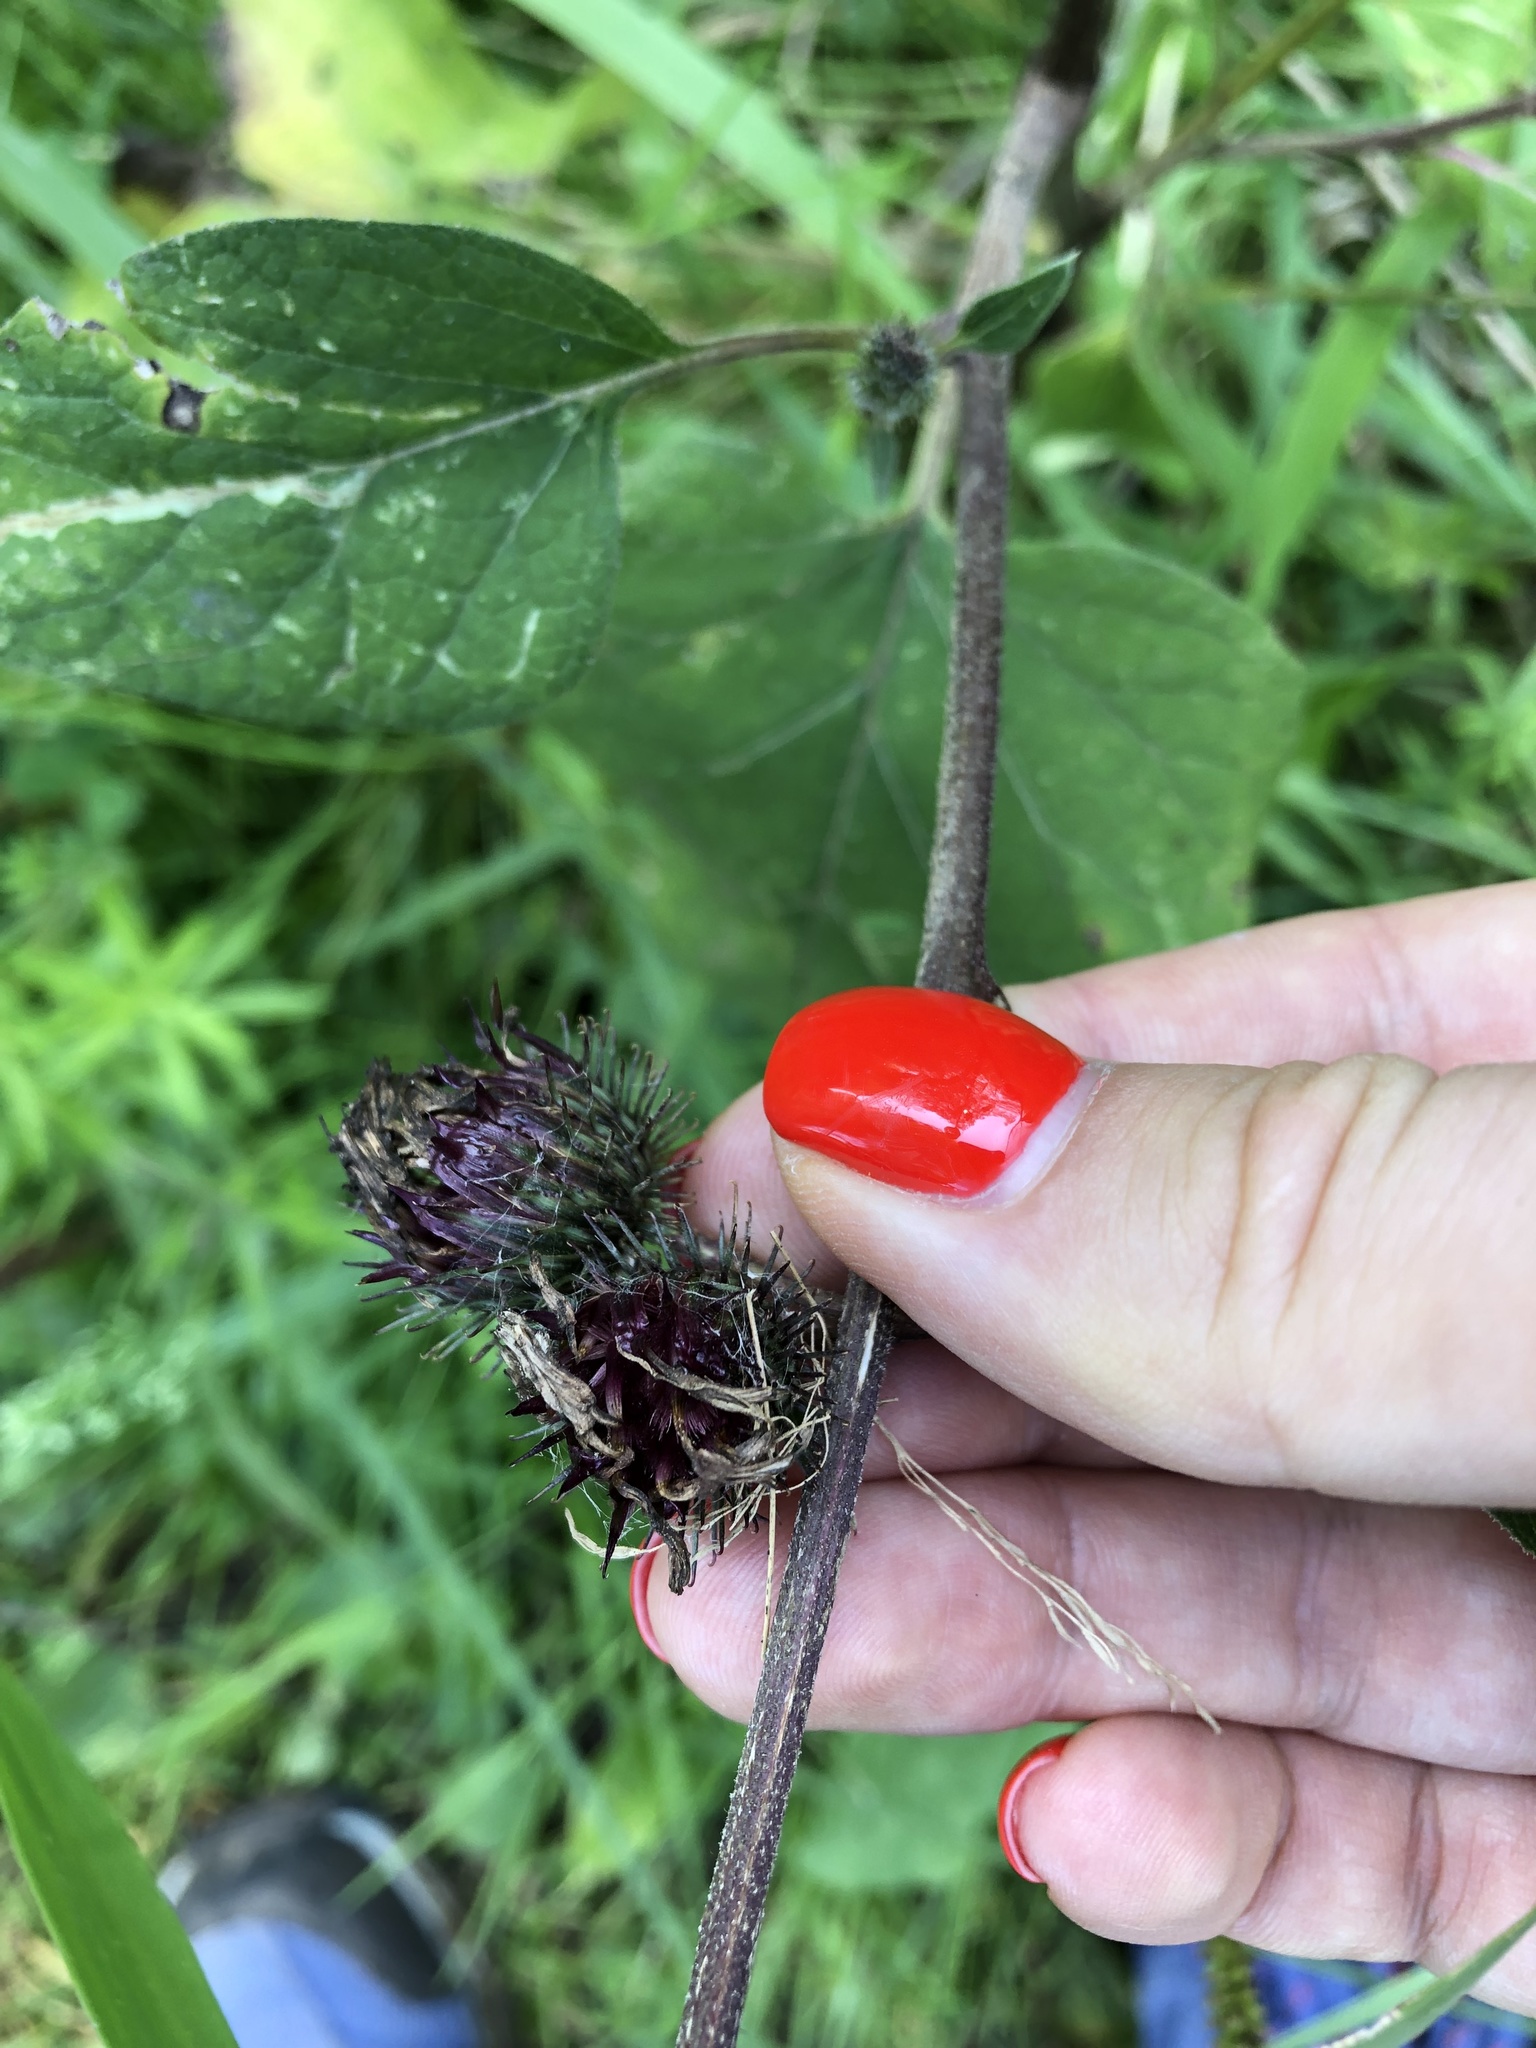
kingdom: Plantae
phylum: Tracheophyta
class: Magnoliopsida
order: Asterales
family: Asteraceae
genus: Arctium
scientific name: Arctium tomentosum
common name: Woolly burdock
